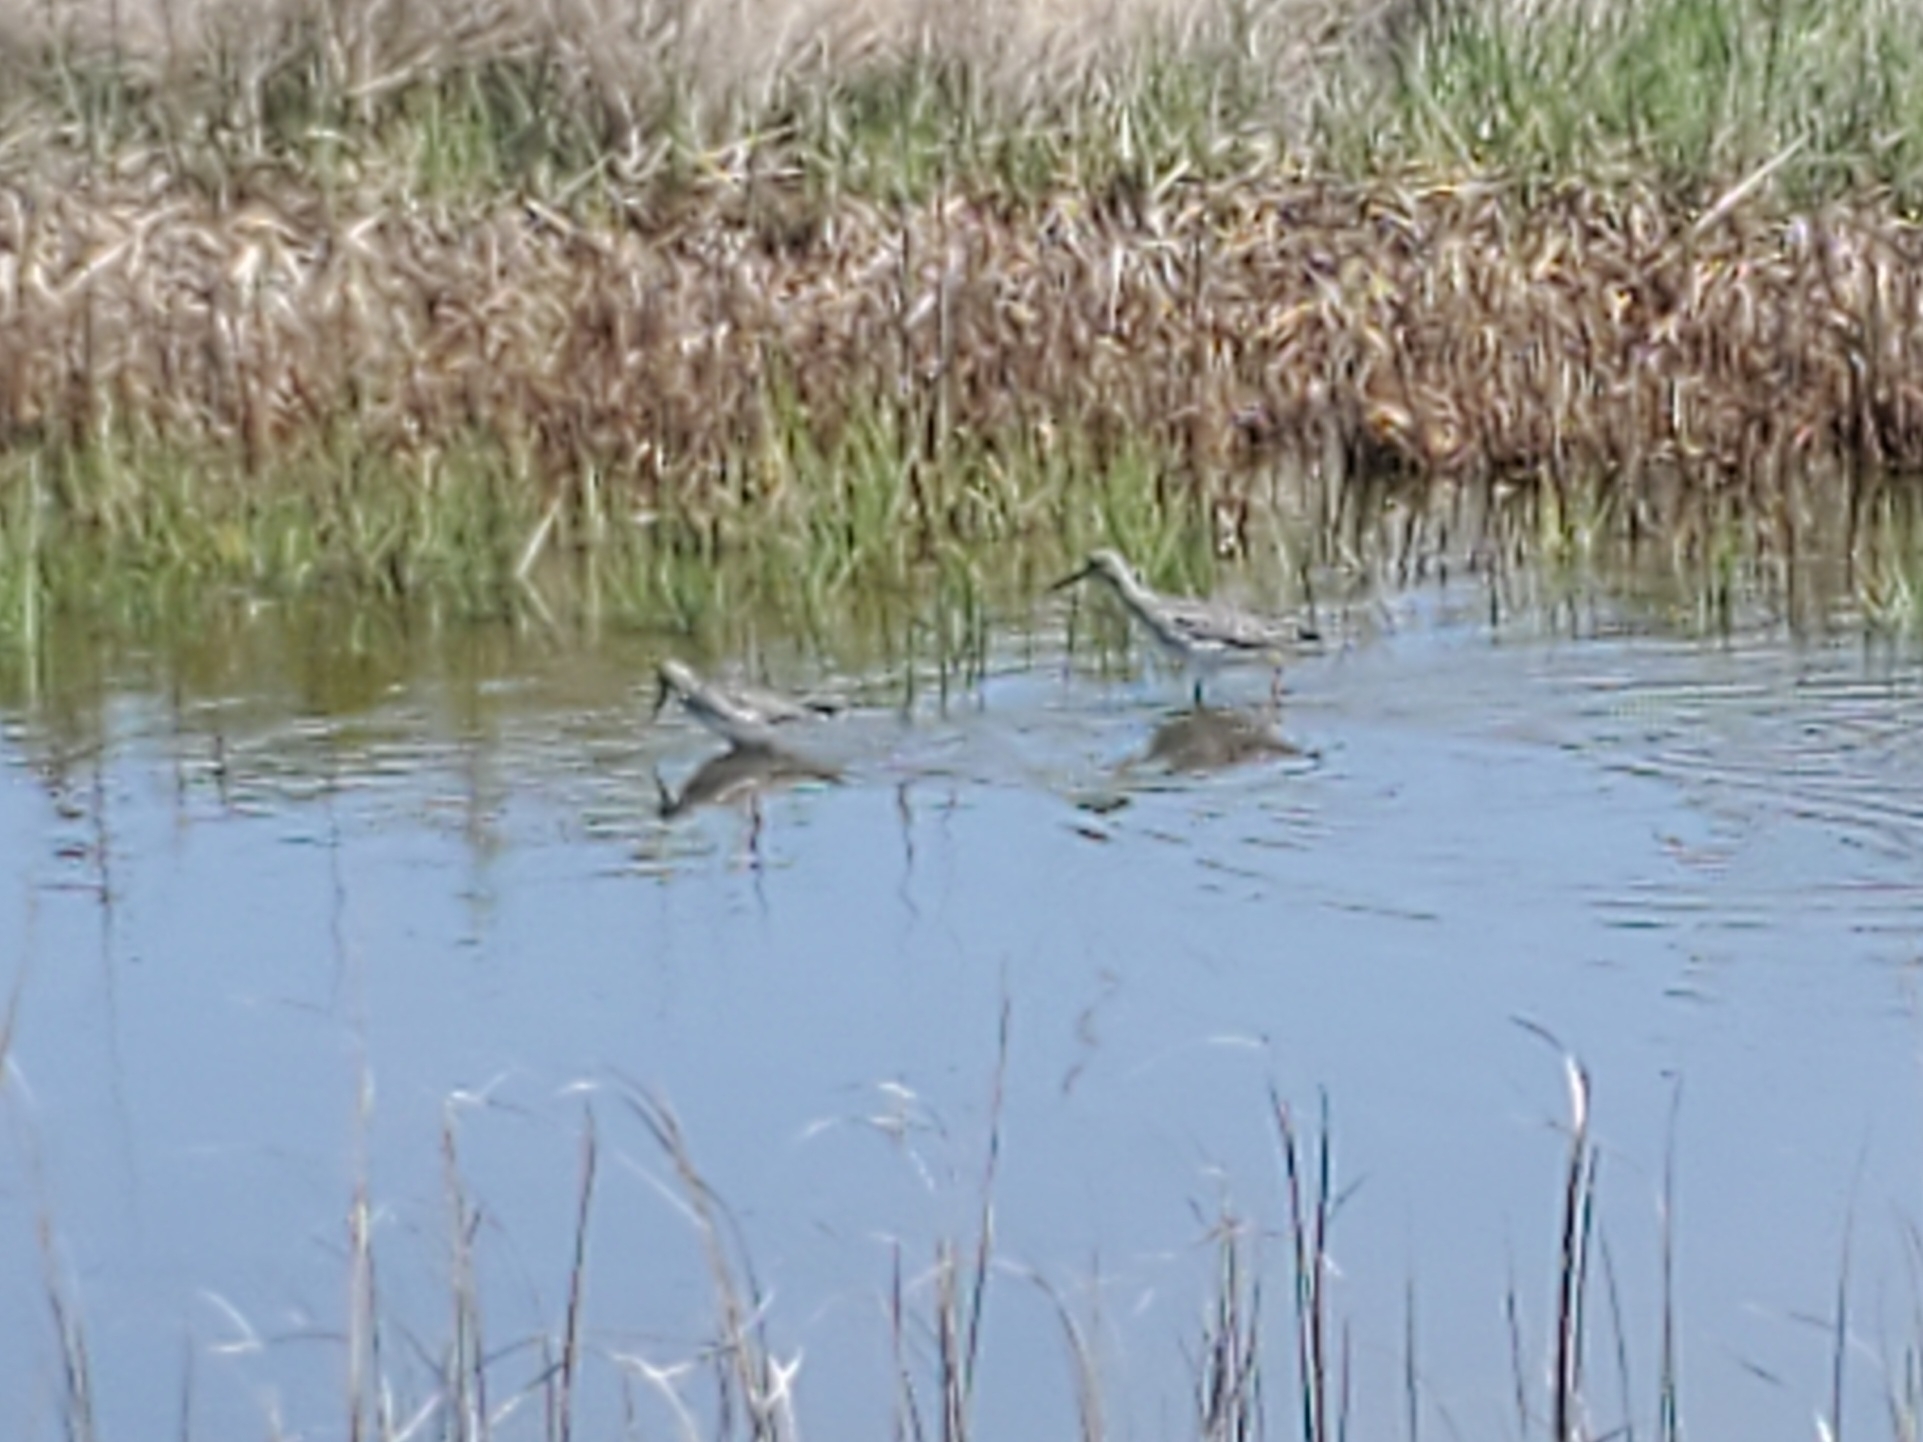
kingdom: Animalia
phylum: Chordata
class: Aves
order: Charadriiformes
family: Scolopacidae
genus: Tringa
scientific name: Tringa melanoleuca
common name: Greater yellowlegs
